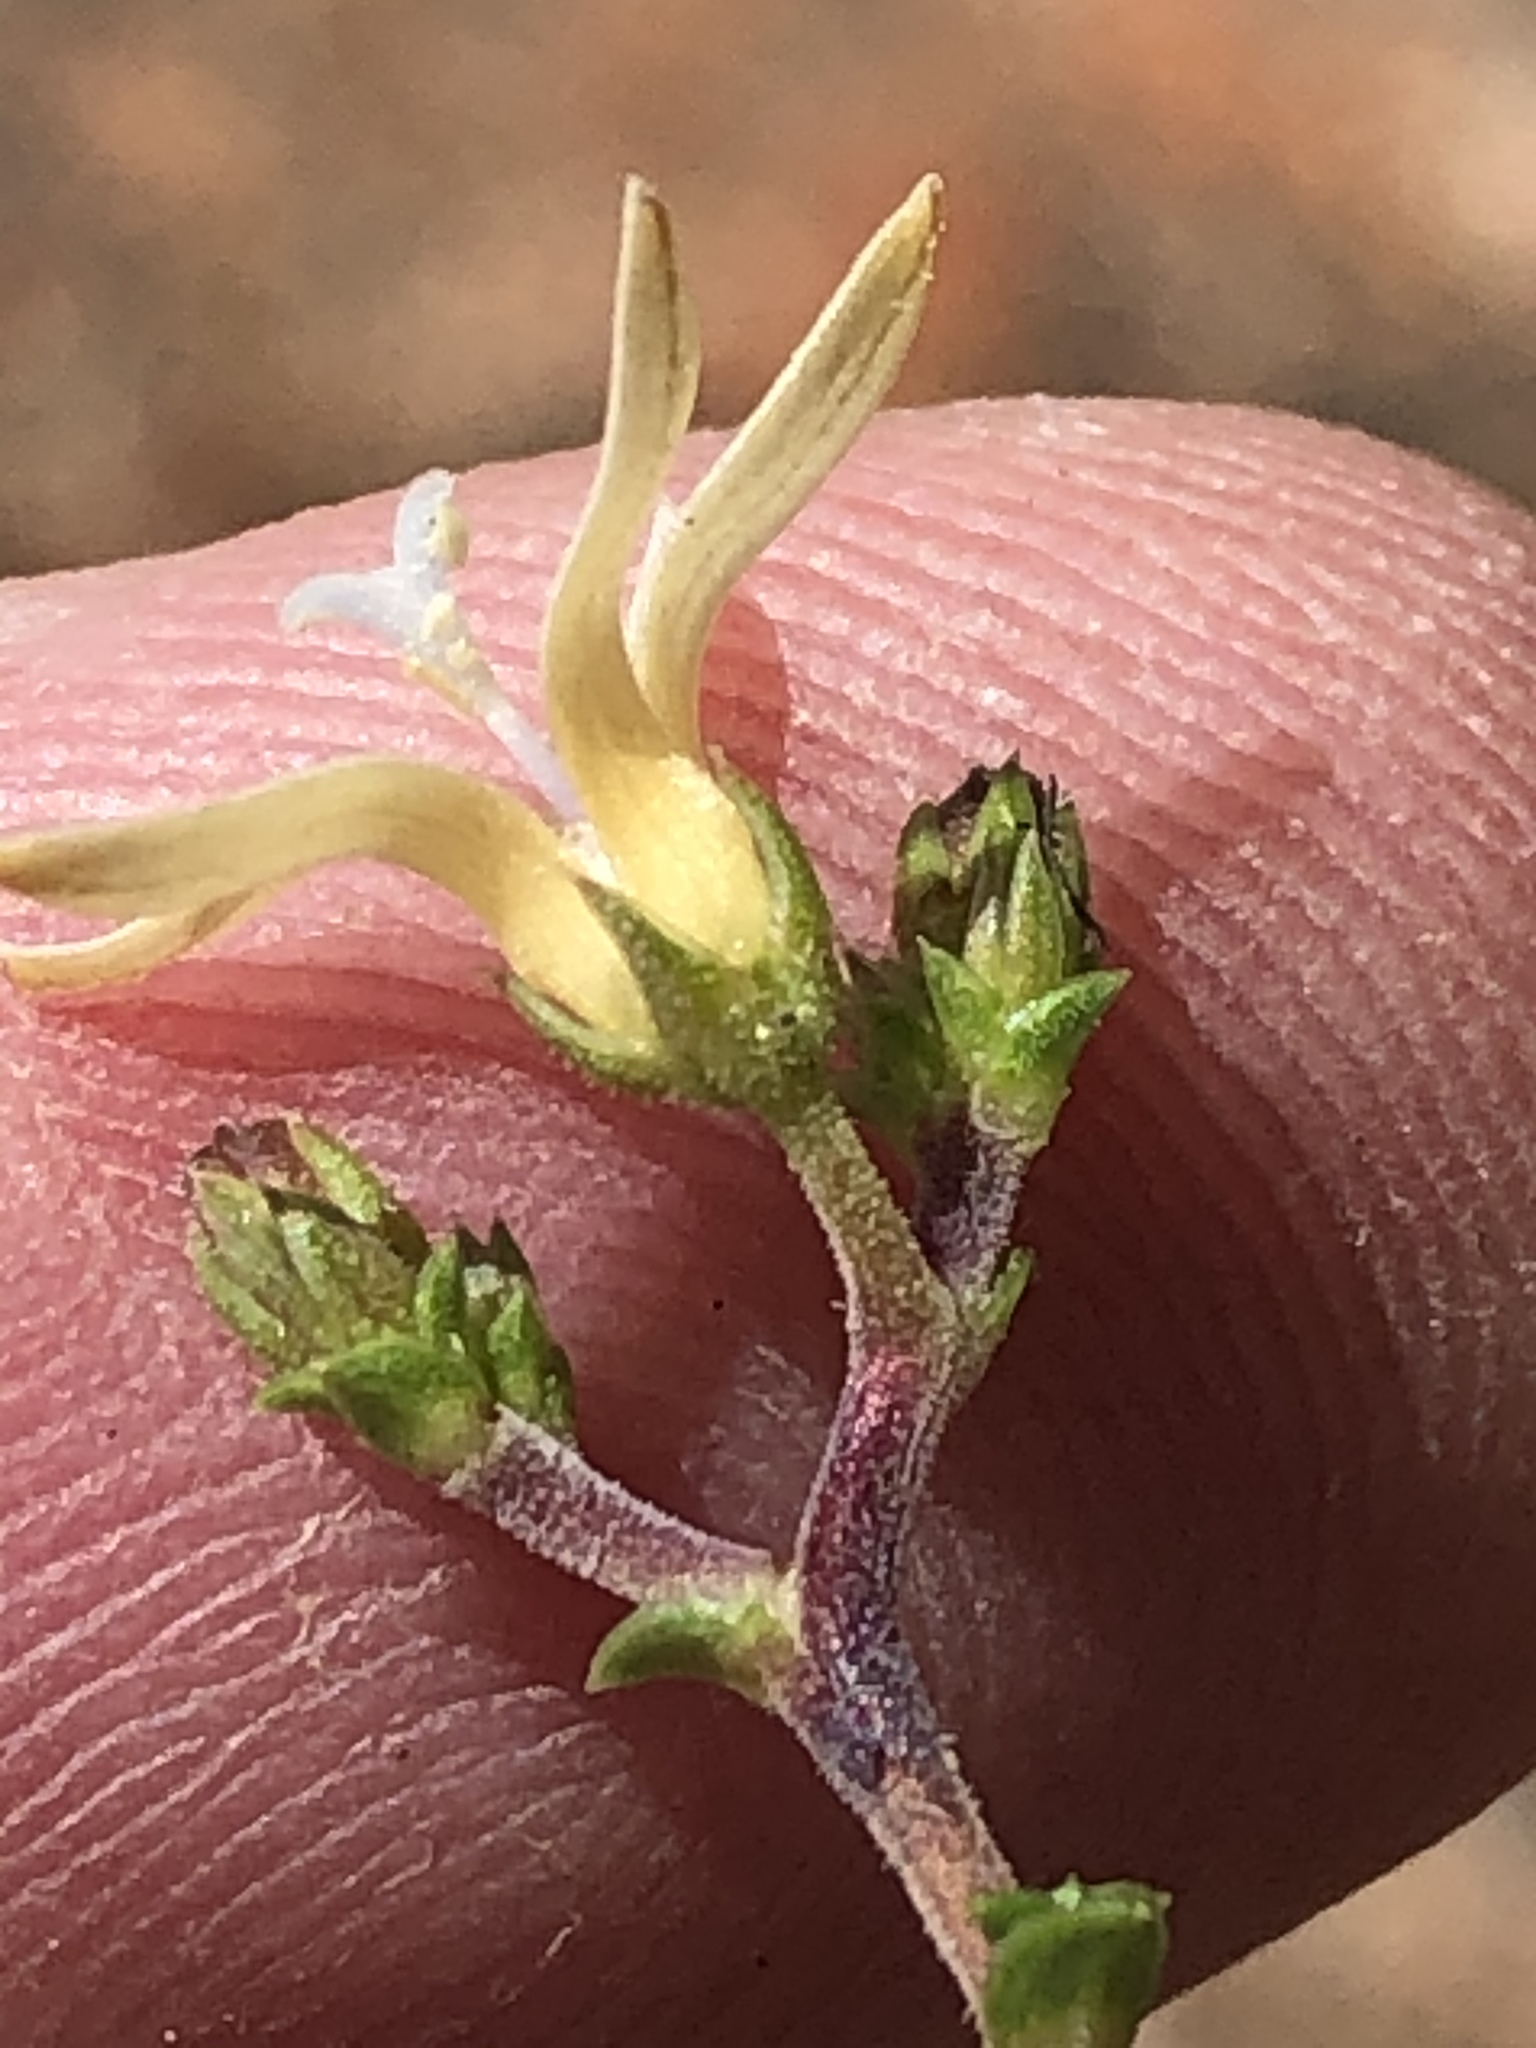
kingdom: Plantae
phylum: Tracheophyta
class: Magnoliopsida
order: Asterales
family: Campanulaceae
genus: Wahlenbergia
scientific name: Wahlenbergia neorigida
